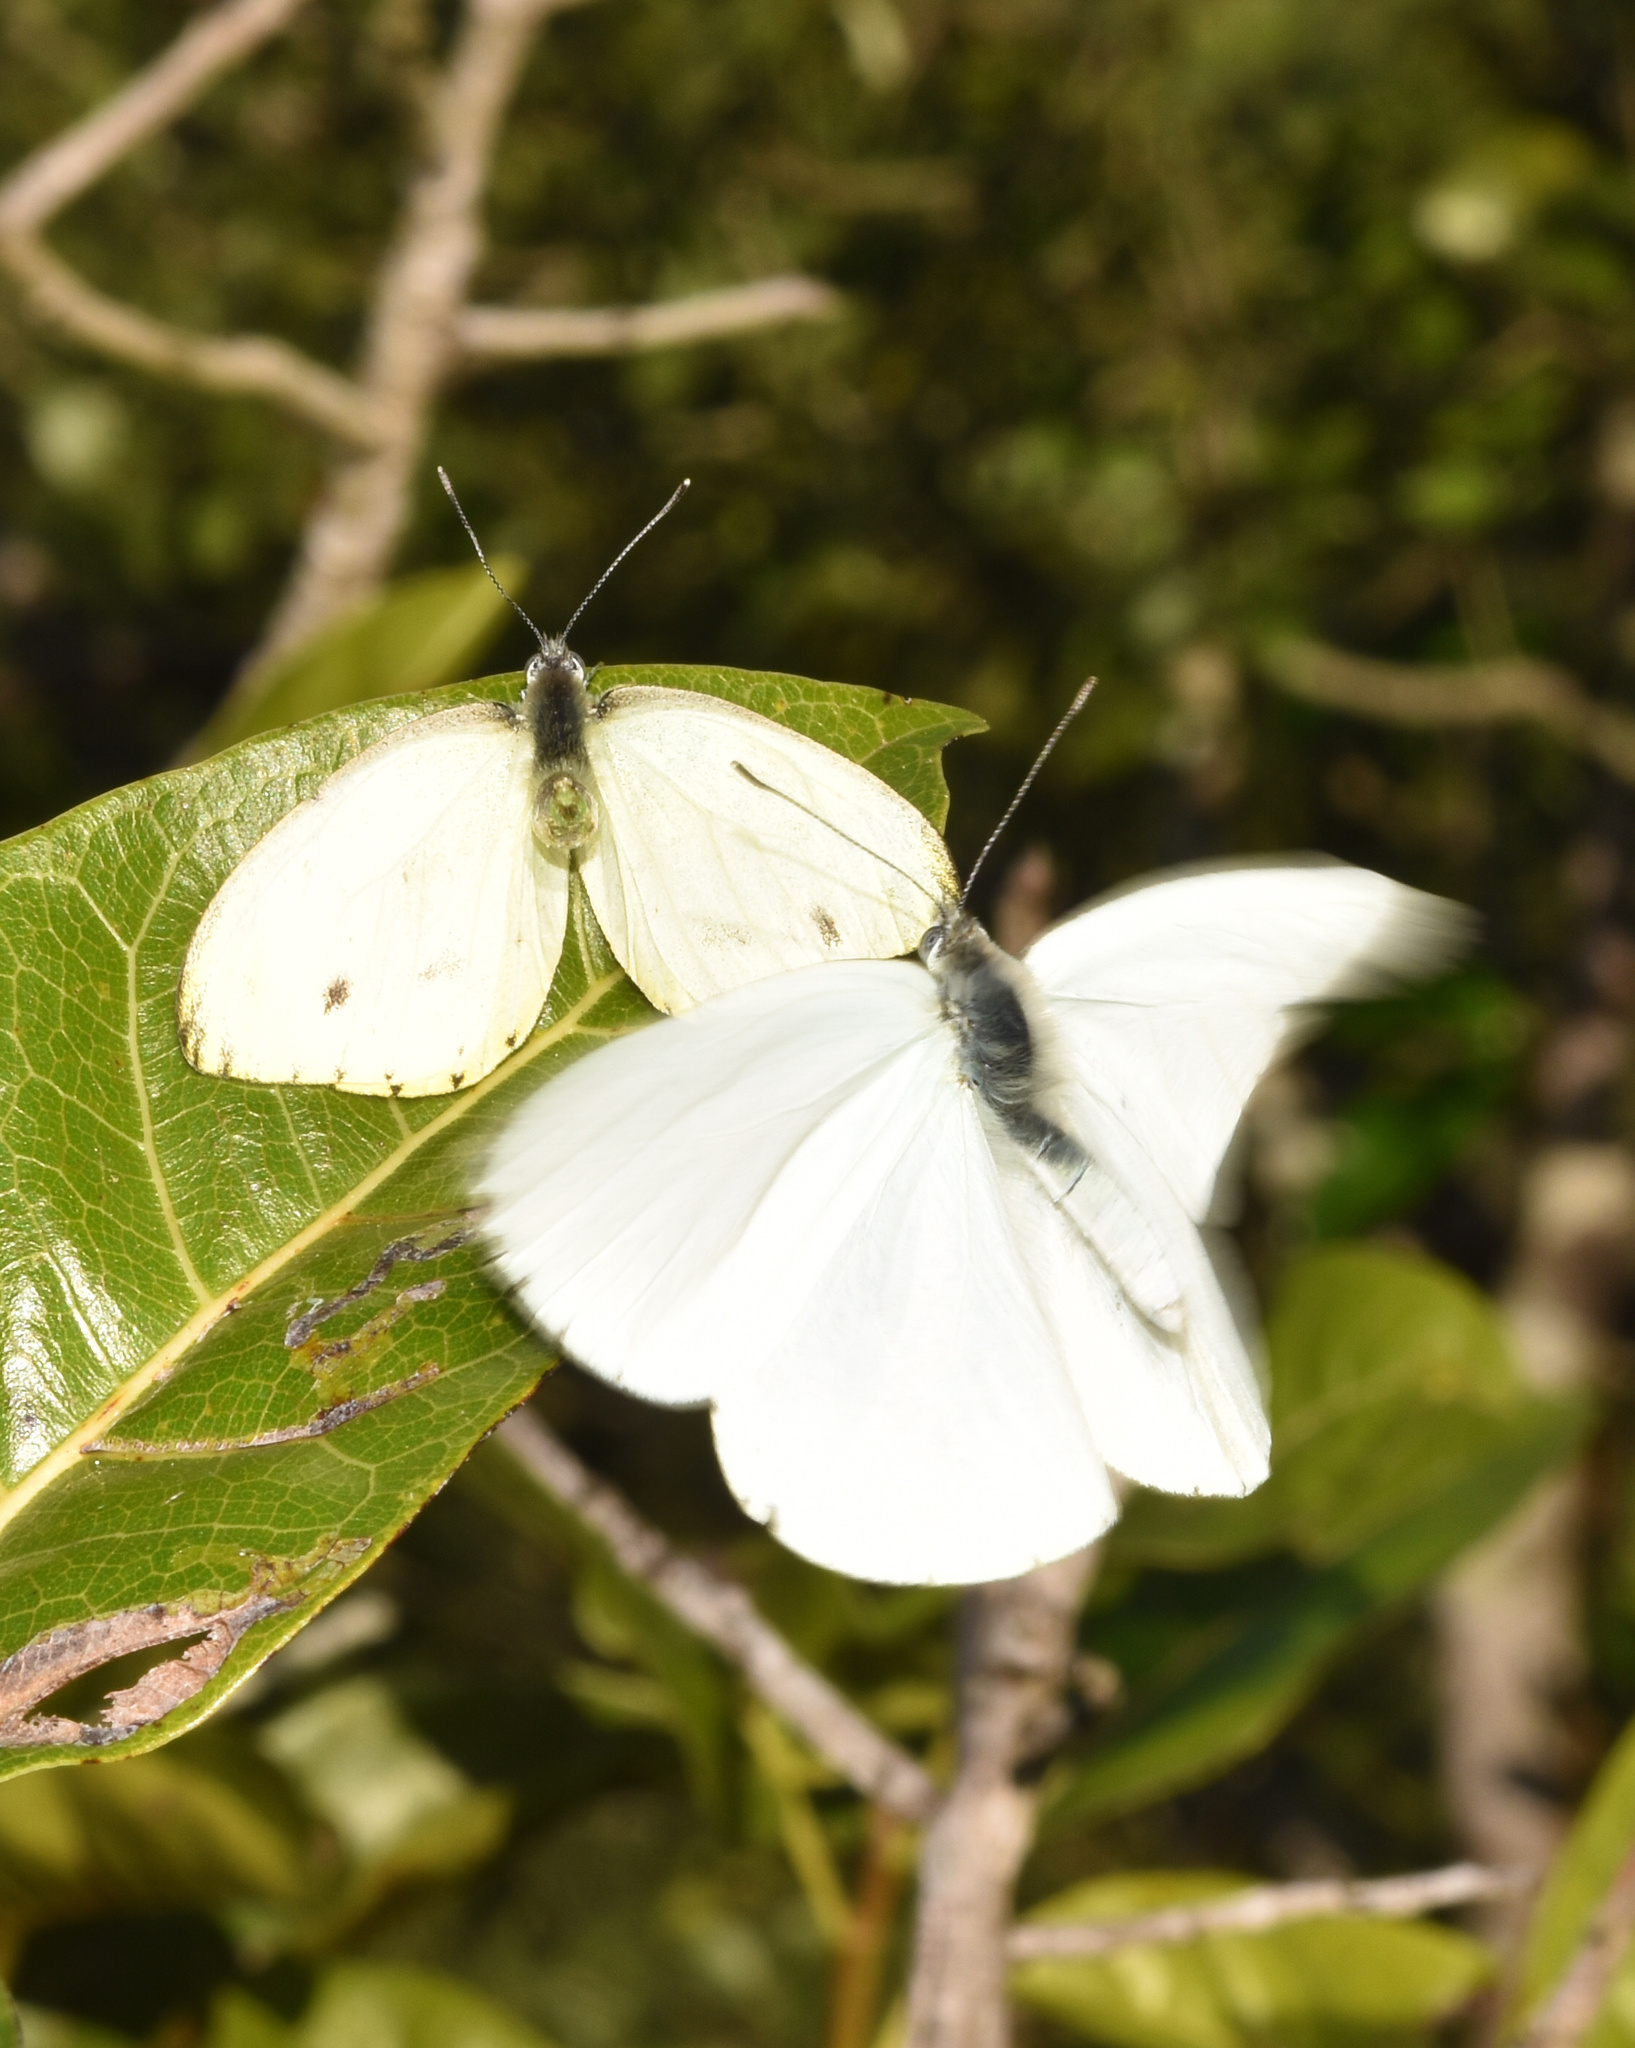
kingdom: Animalia
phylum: Arthropoda
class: Insecta
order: Lepidoptera
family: Pieridae
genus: Dixeia
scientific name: Dixeia pigea
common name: Ant-heap small white
